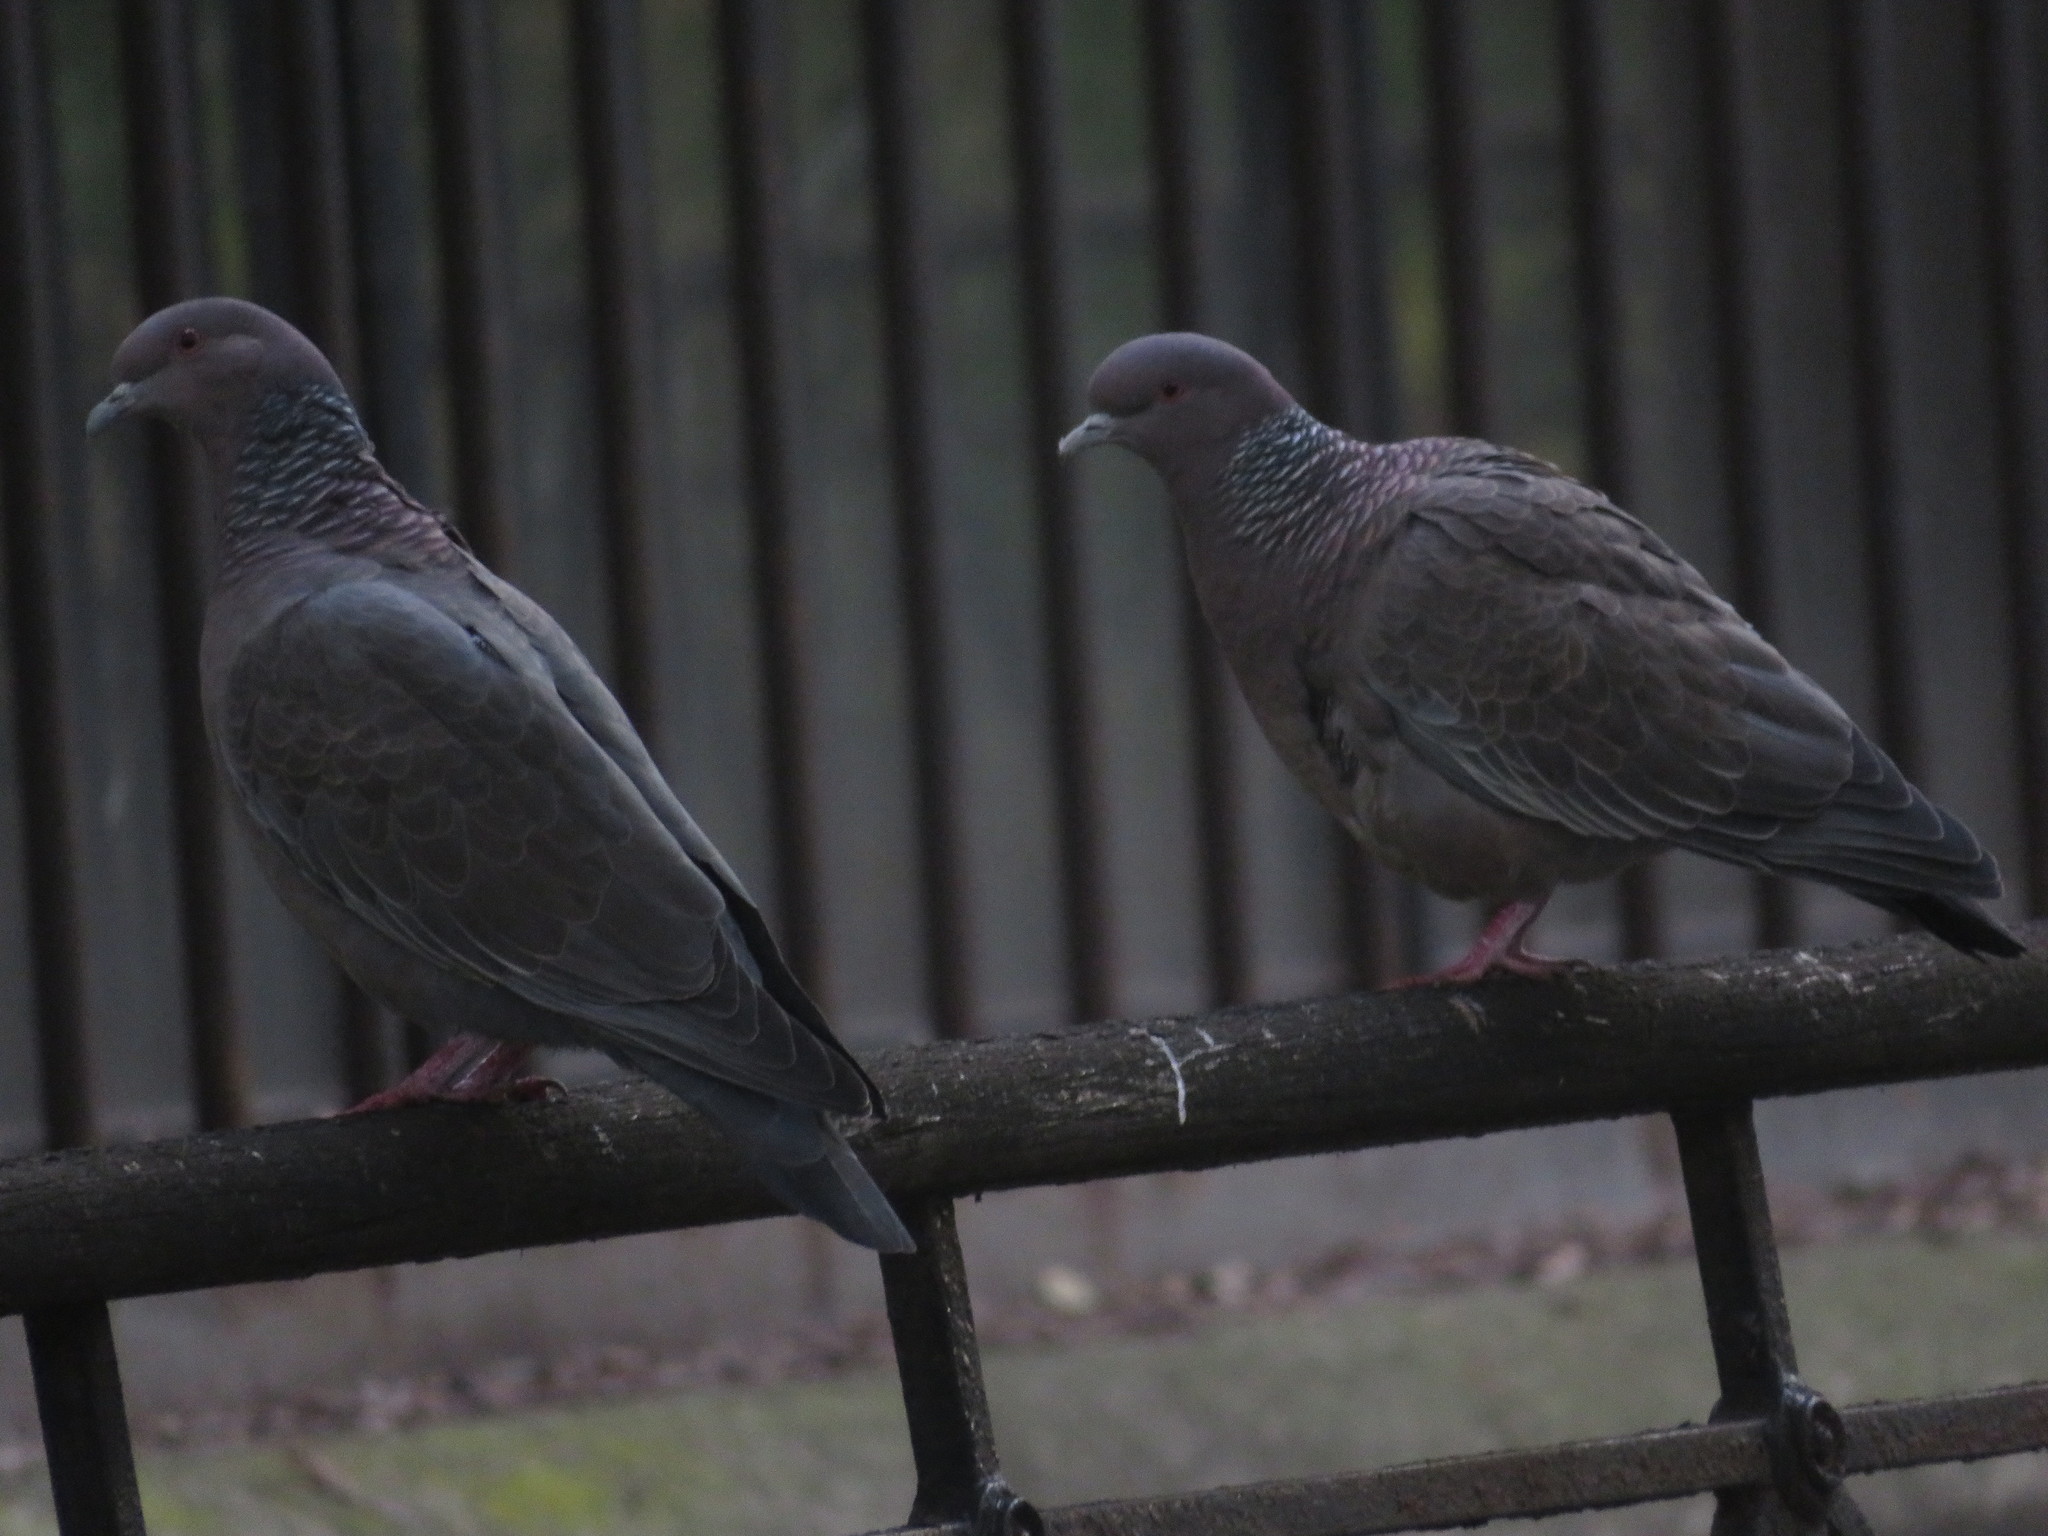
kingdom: Animalia
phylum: Chordata
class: Aves
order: Columbiformes
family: Columbidae
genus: Patagioenas
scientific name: Patagioenas picazuro
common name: Picazuro pigeon
